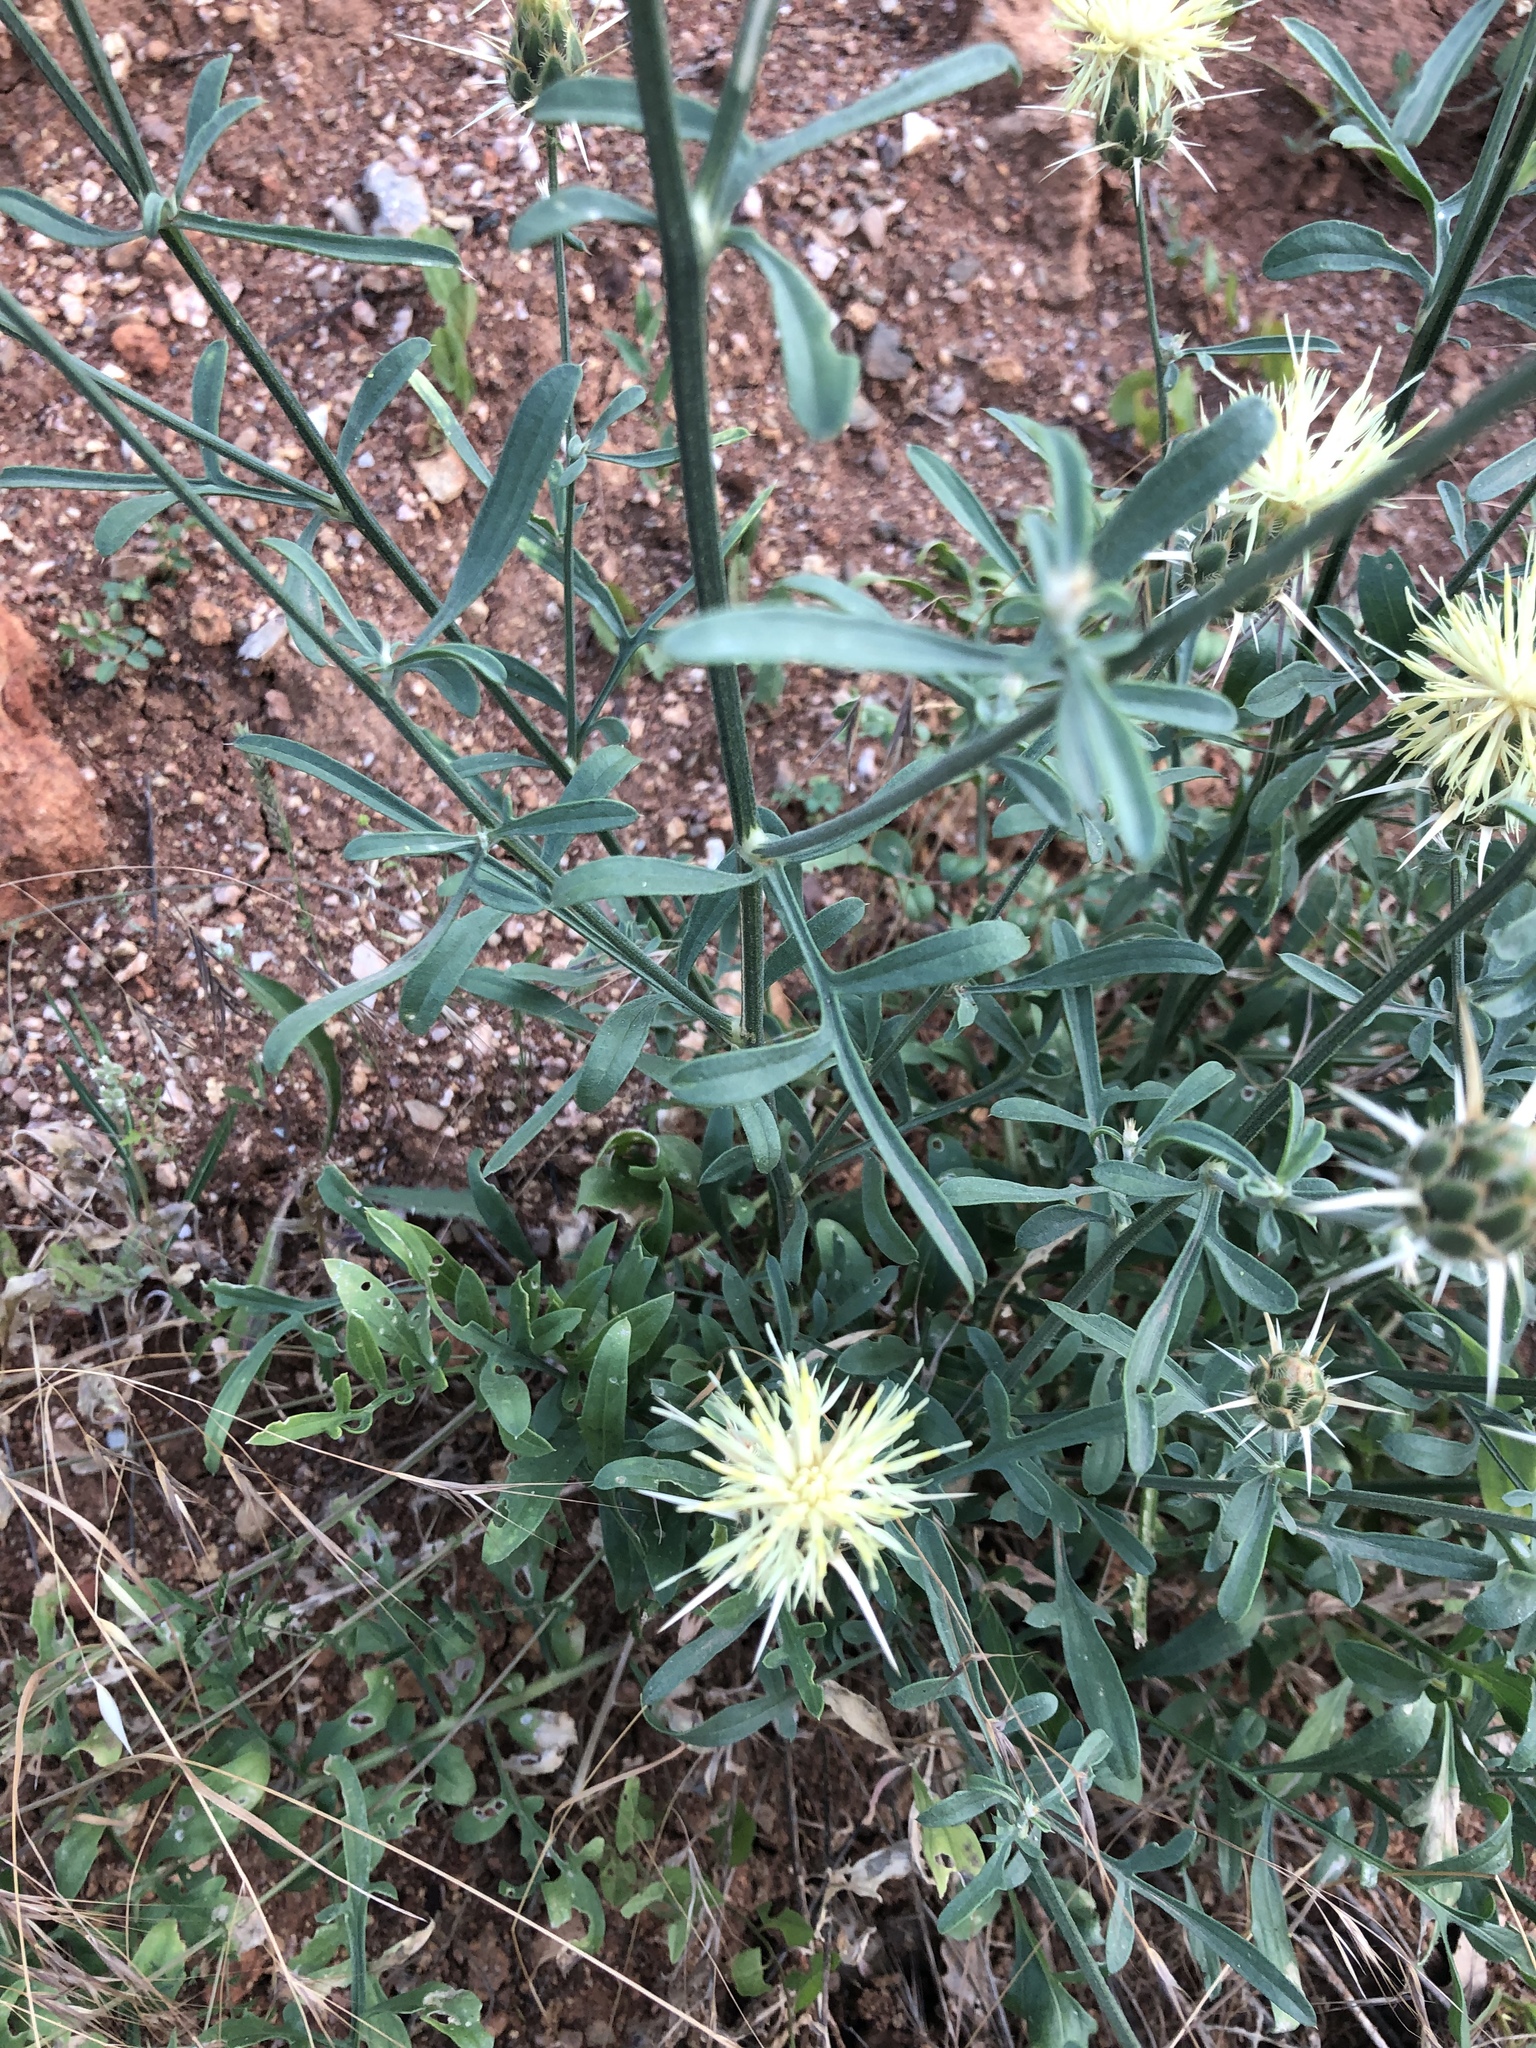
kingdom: Plantae
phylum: Tracheophyta
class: Magnoliopsida
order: Asterales
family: Asteraceae
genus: Centaurea
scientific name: Centaurea salonitana
